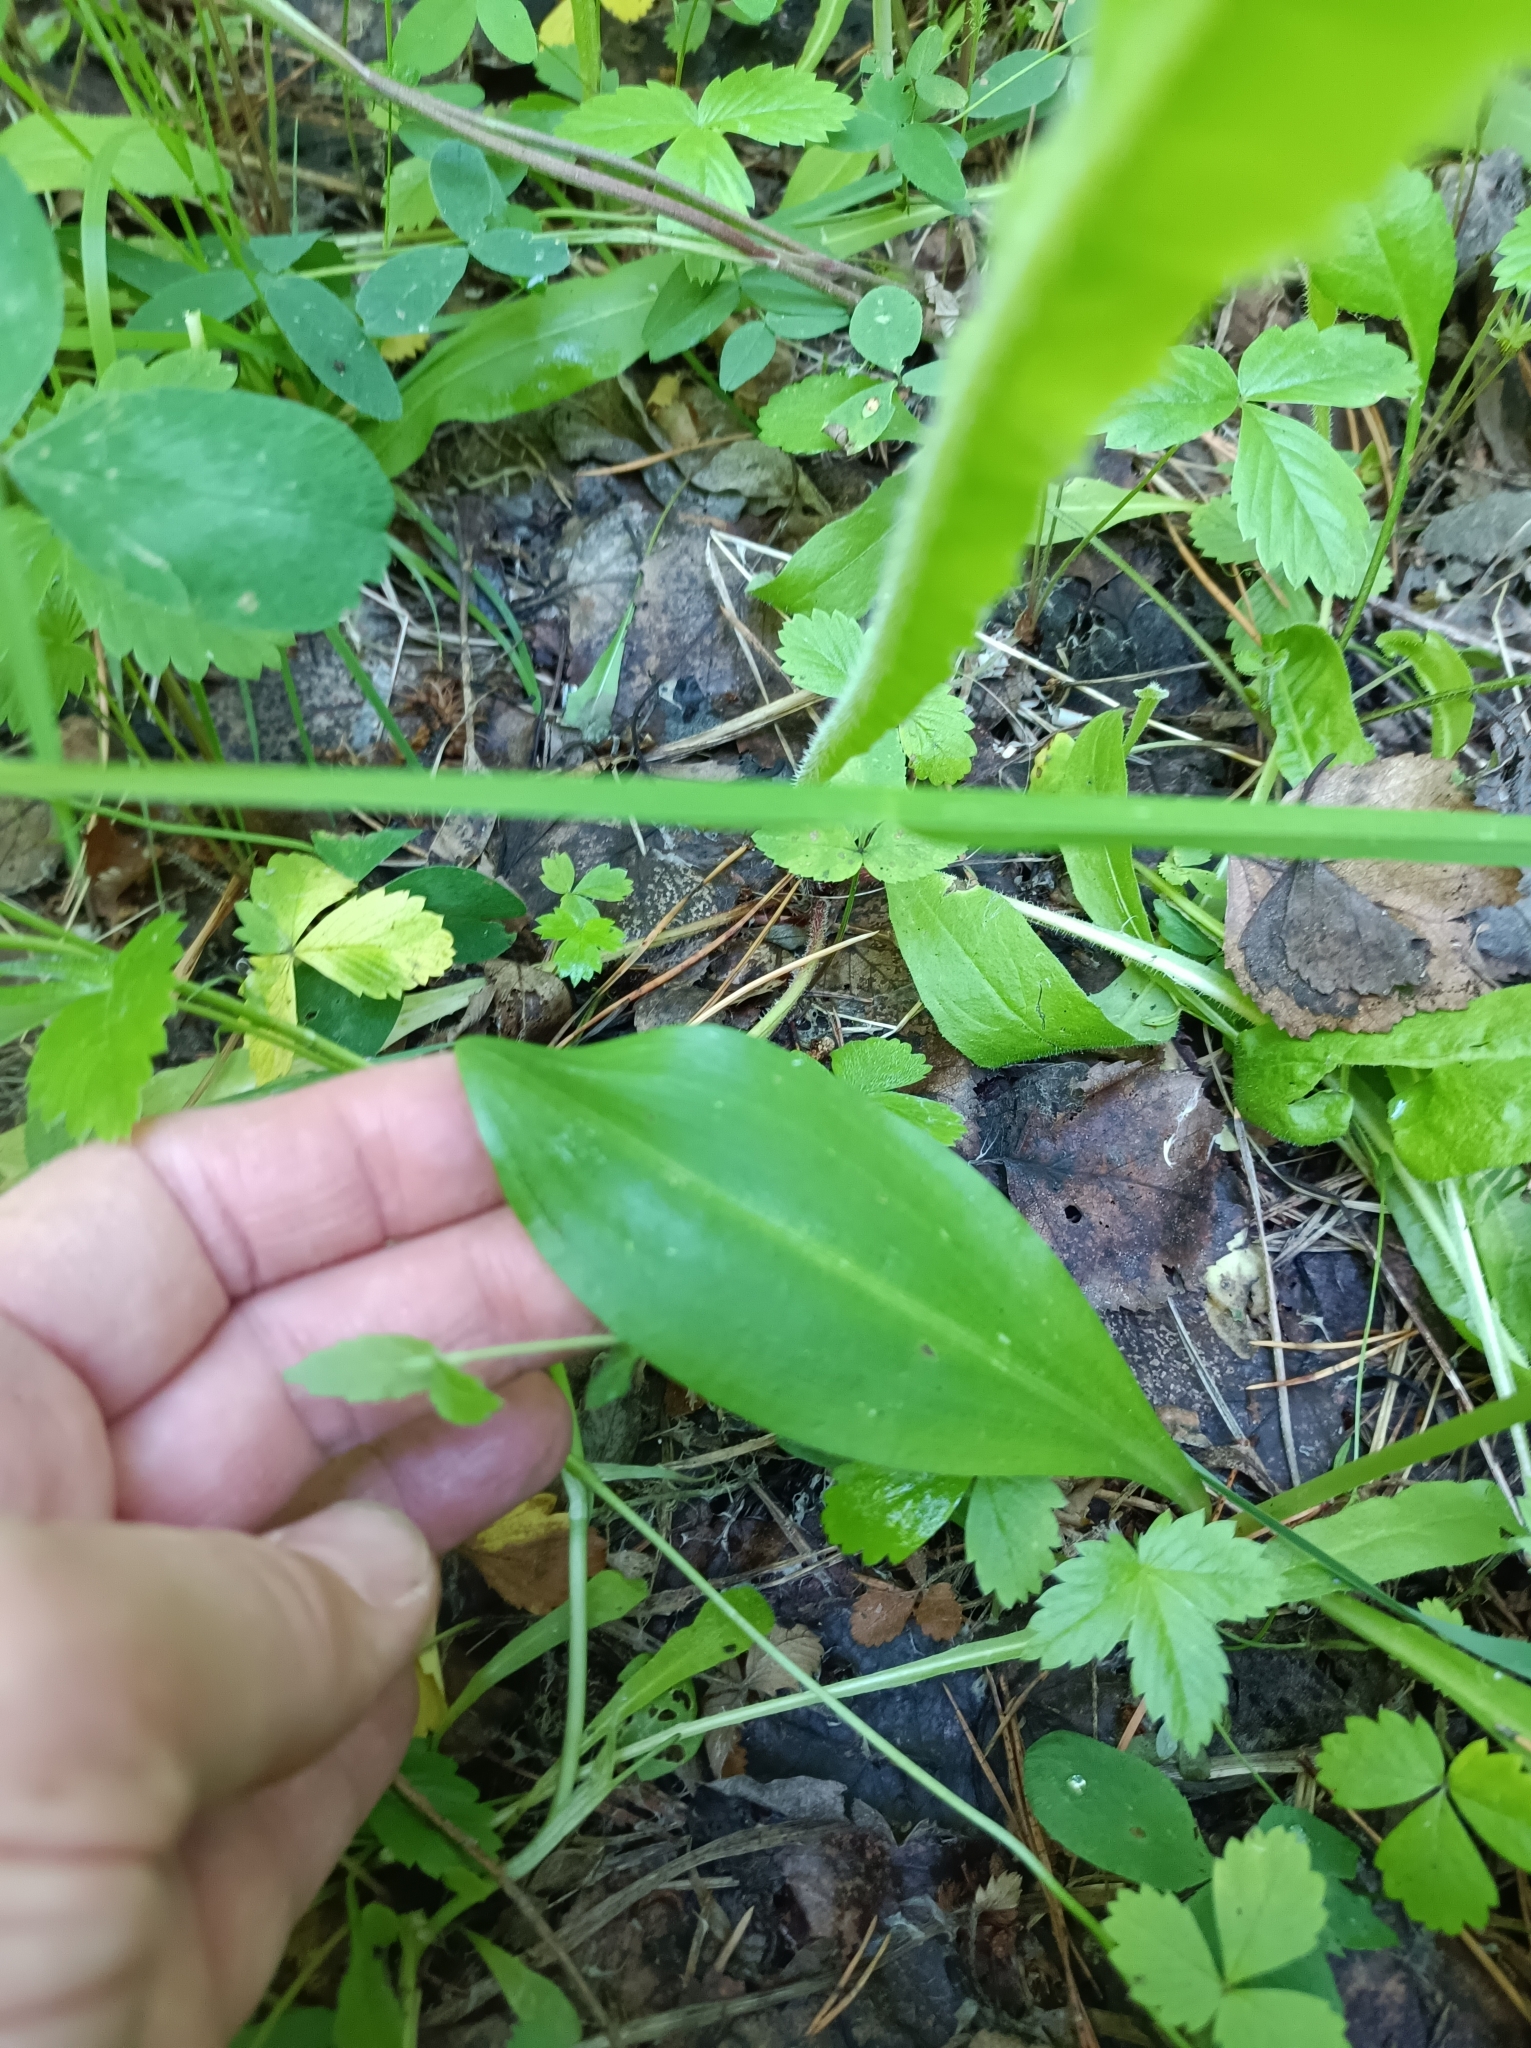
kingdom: Plantae
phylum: Tracheophyta
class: Liliopsida
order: Asparagales
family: Orchidaceae
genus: Platanthera
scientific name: Platanthera bifolia
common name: Lesser butterfly-orchid
